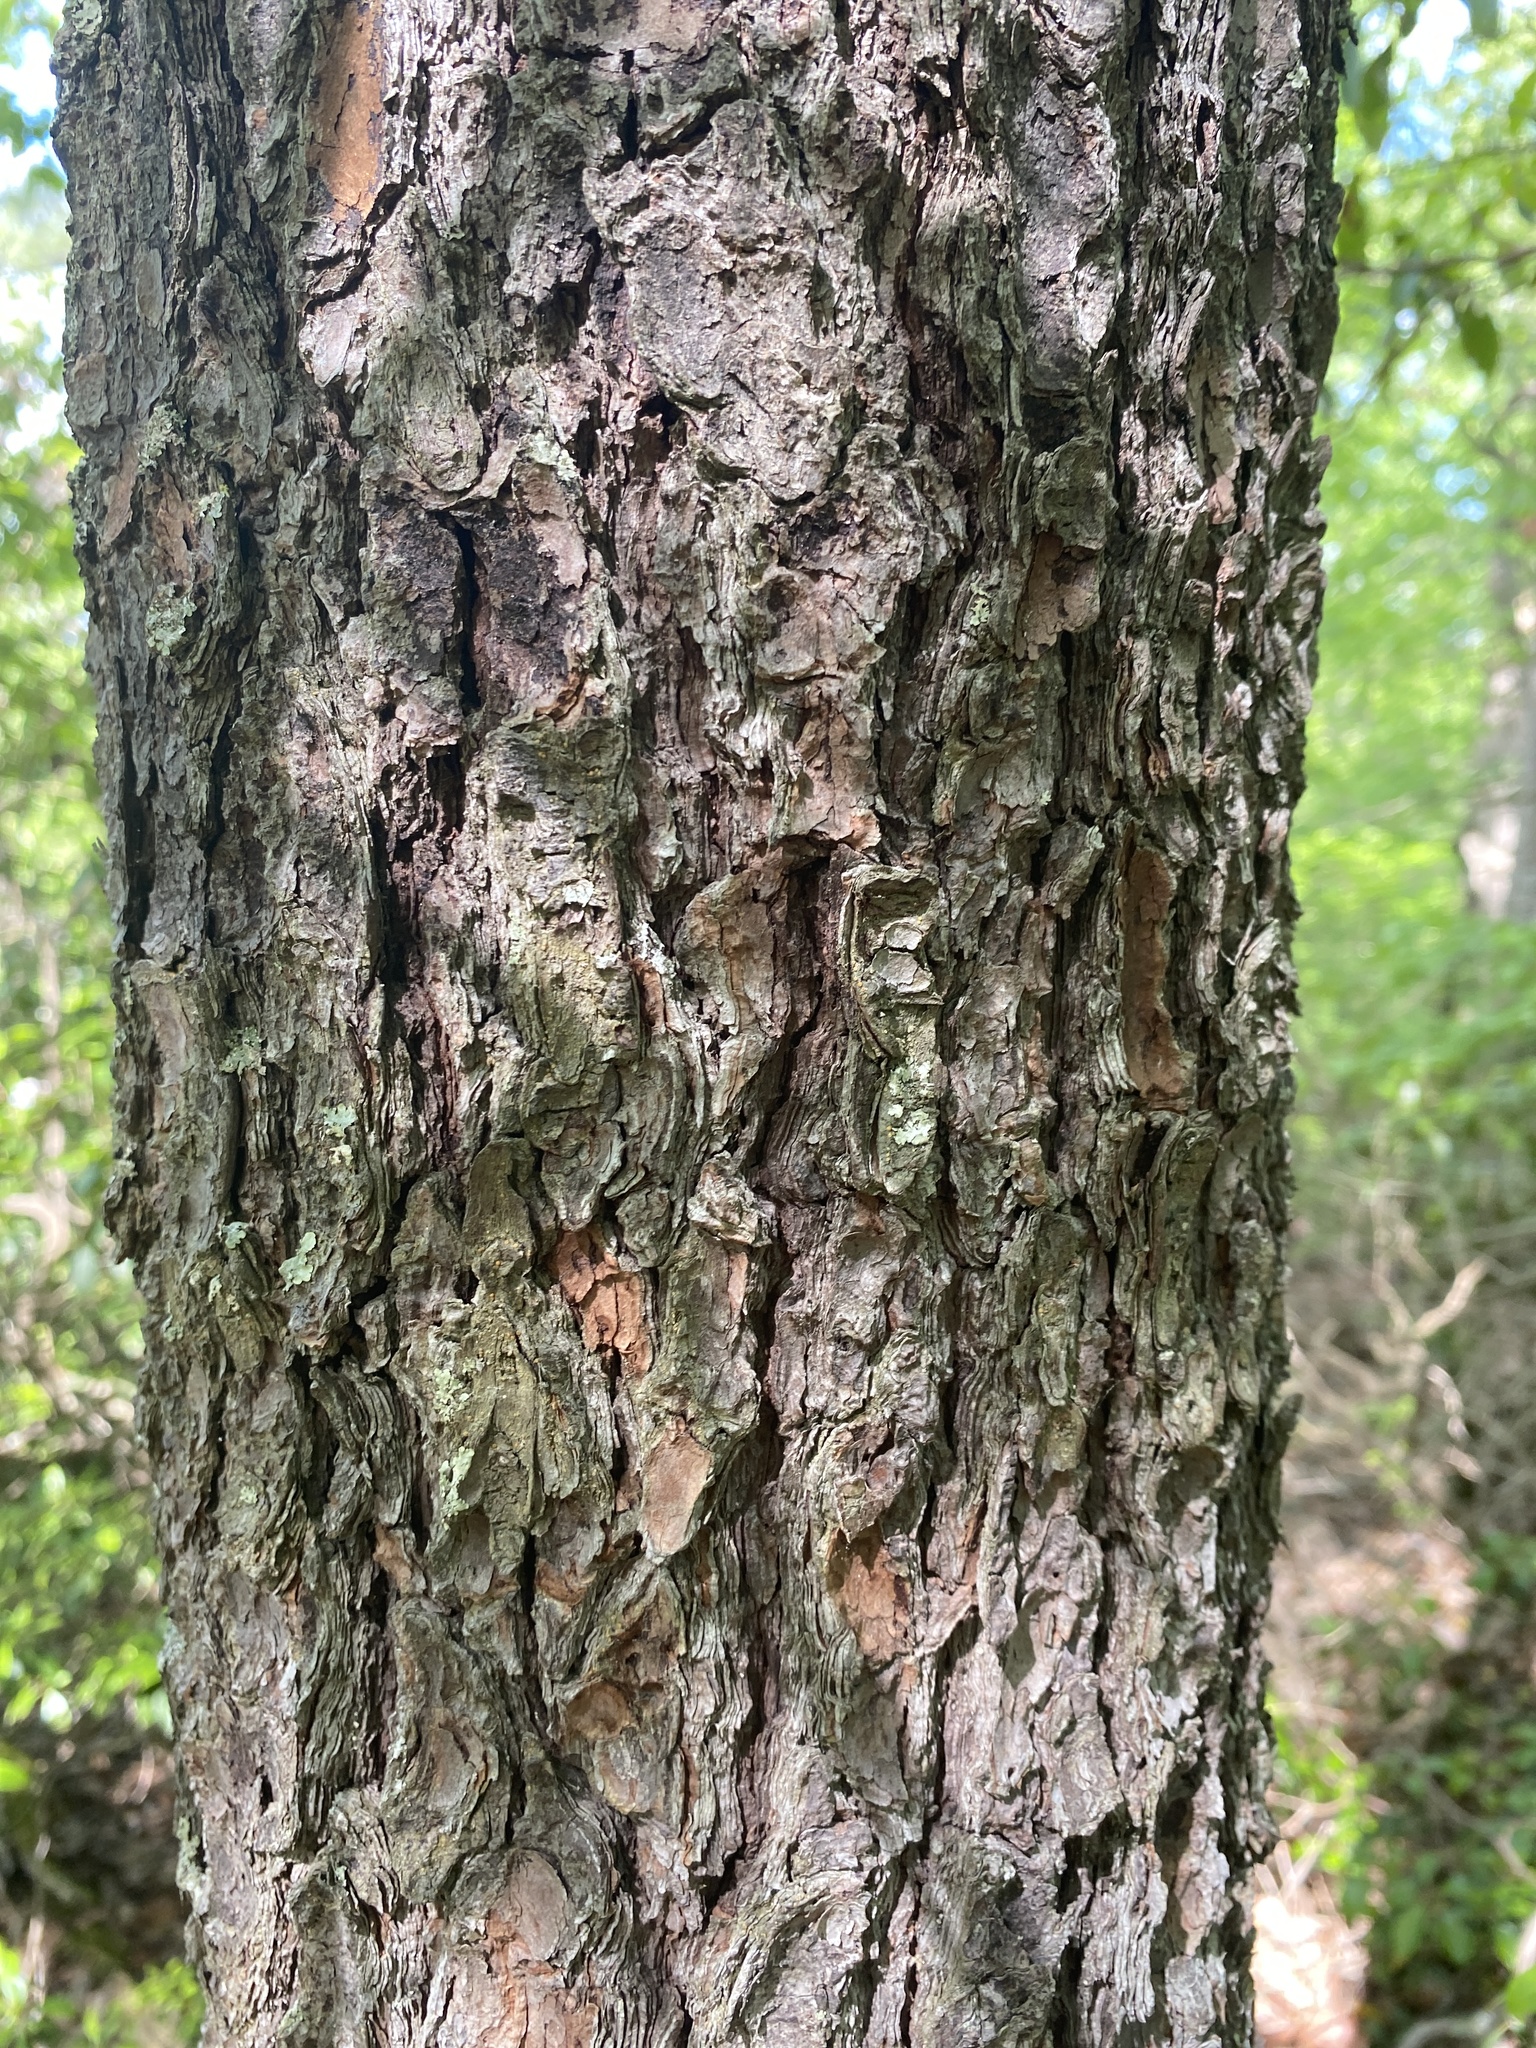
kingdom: Plantae
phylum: Tracheophyta
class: Pinopsida
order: Pinales
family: Pinaceae
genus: Pinus
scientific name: Pinus strobus
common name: Weymouth pine
